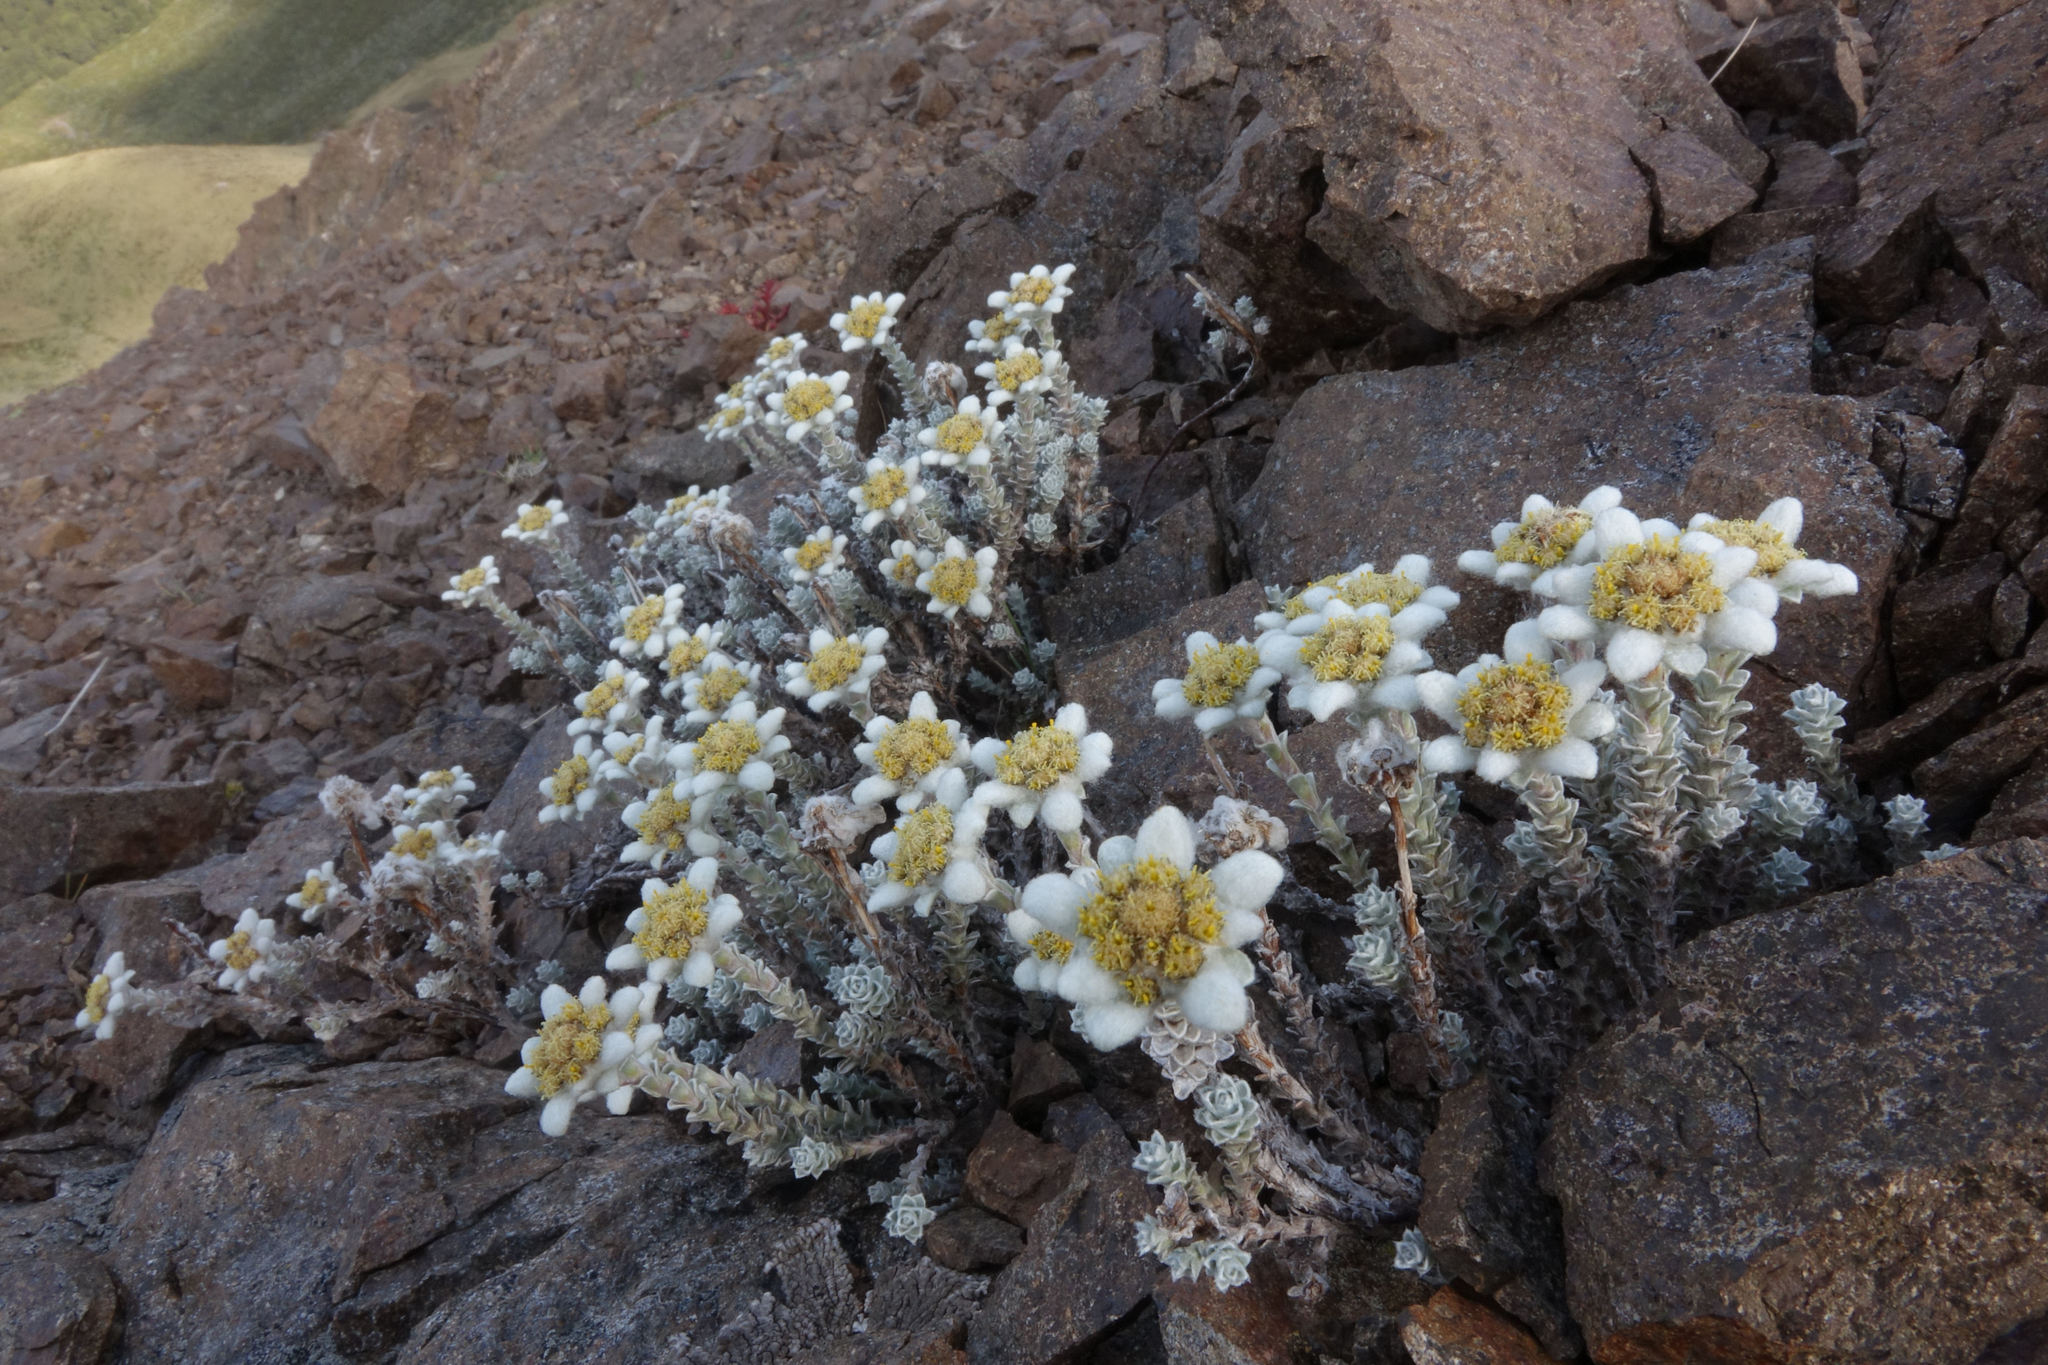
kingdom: Plantae
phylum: Tracheophyta
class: Magnoliopsida
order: Asterales
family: Asteraceae
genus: Leucogenes
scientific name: Leucogenes grandiceps
